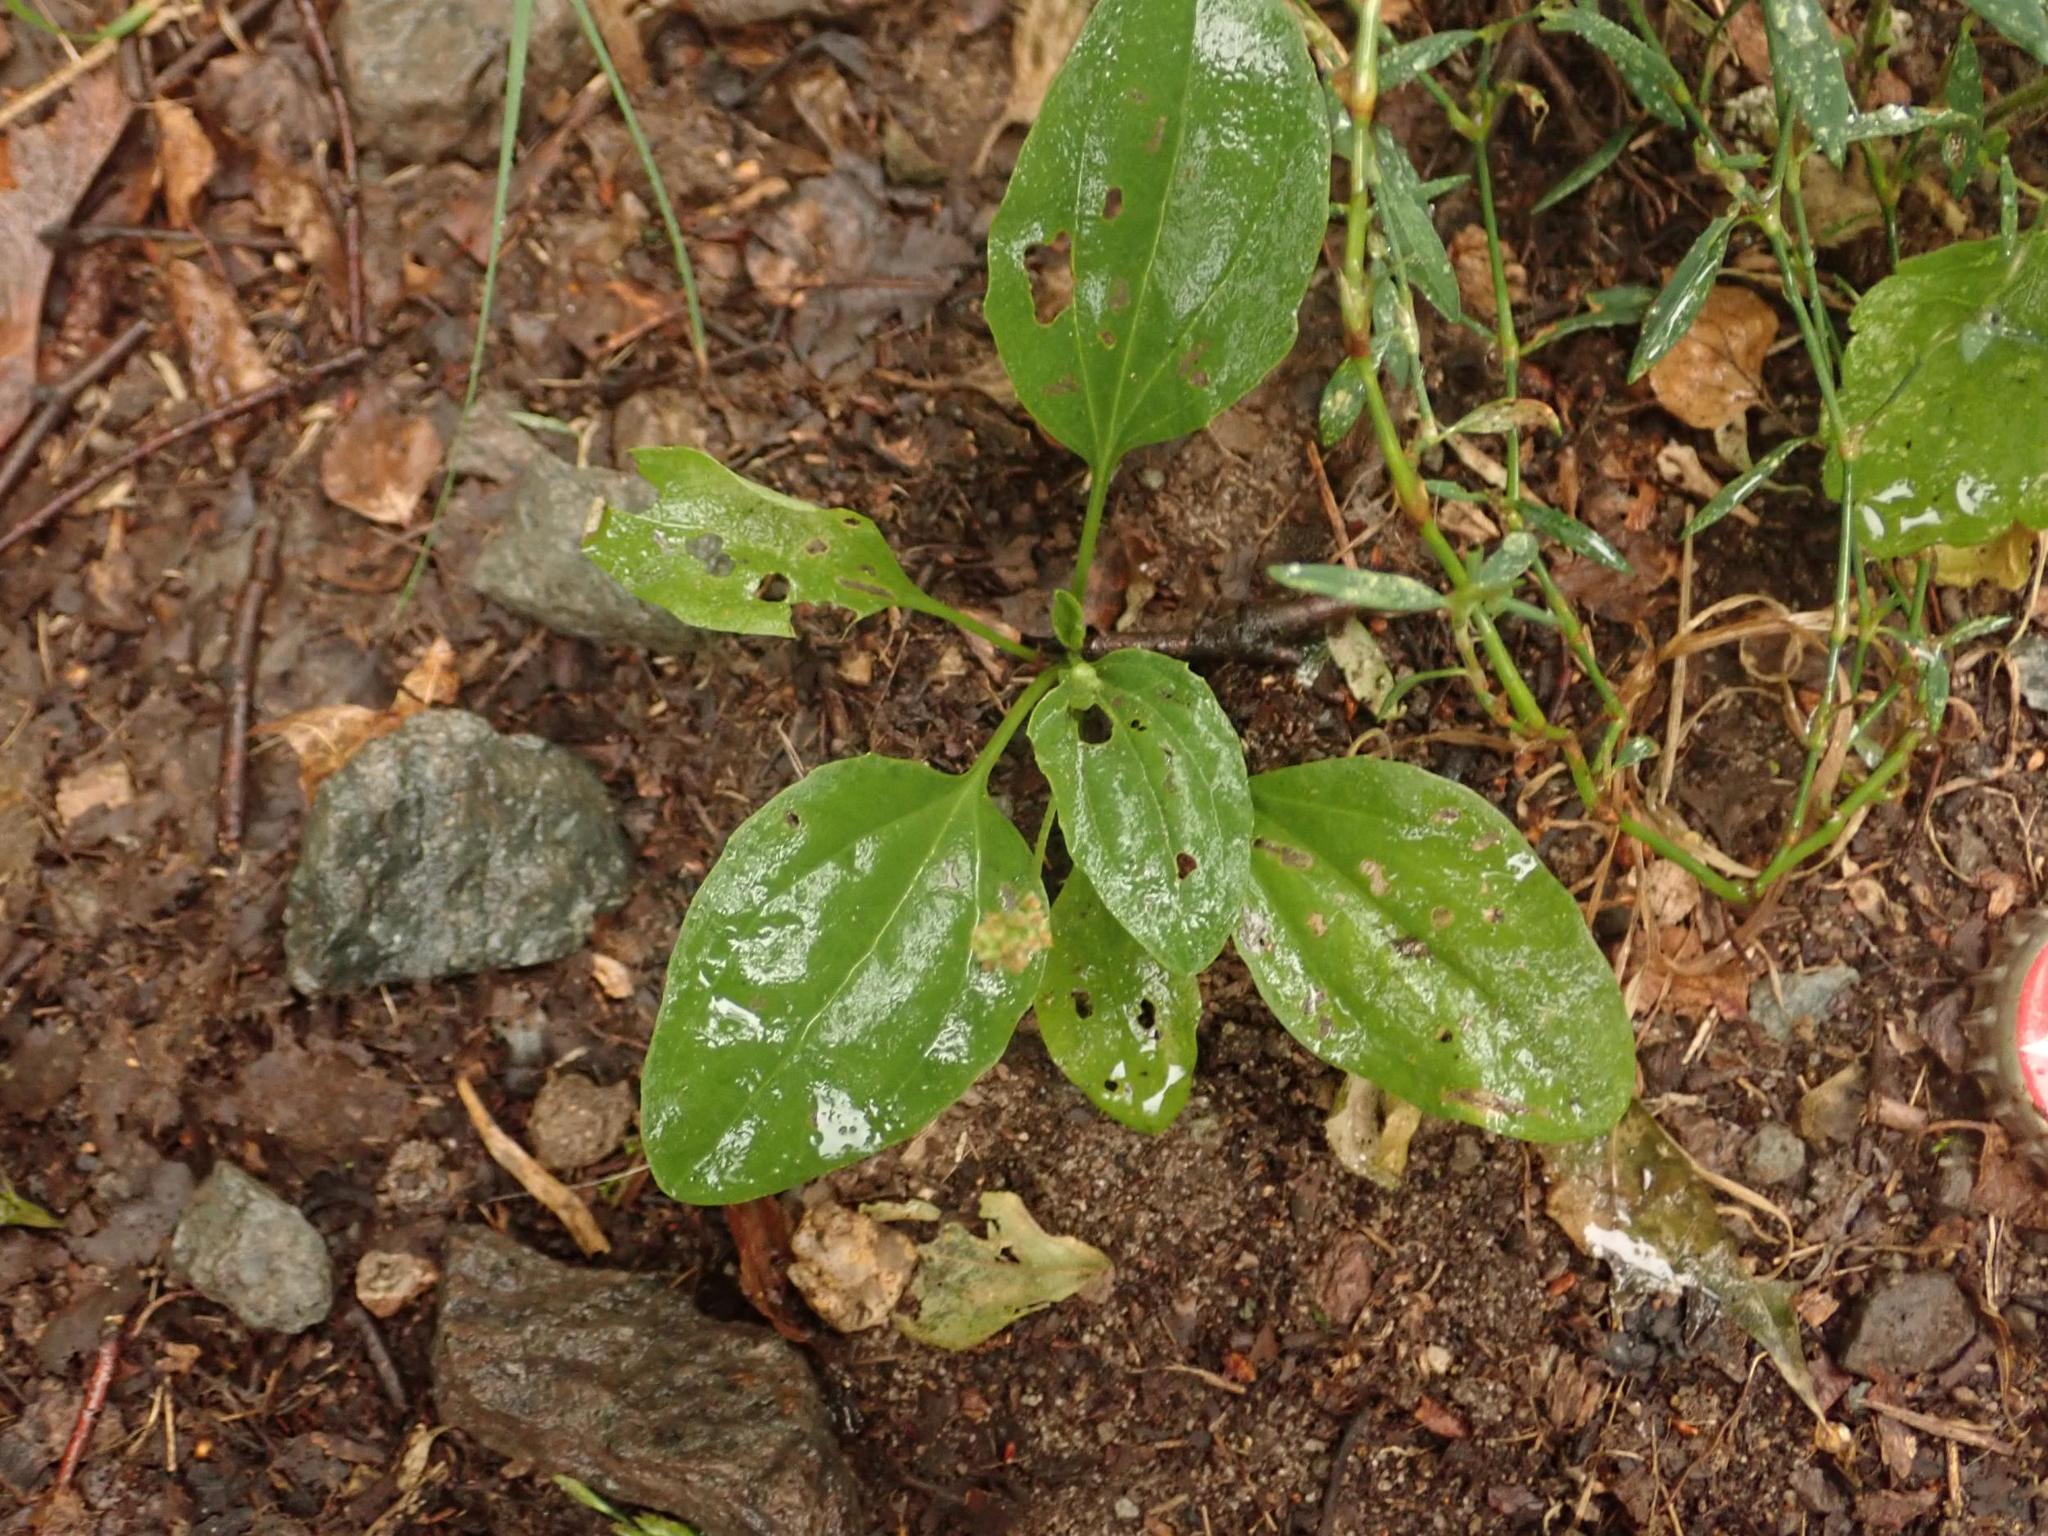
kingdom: Plantae
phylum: Tracheophyta
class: Magnoliopsida
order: Lamiales
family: Plantaginaceae
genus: Plantago
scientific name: Plantago major
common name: Common plantain
